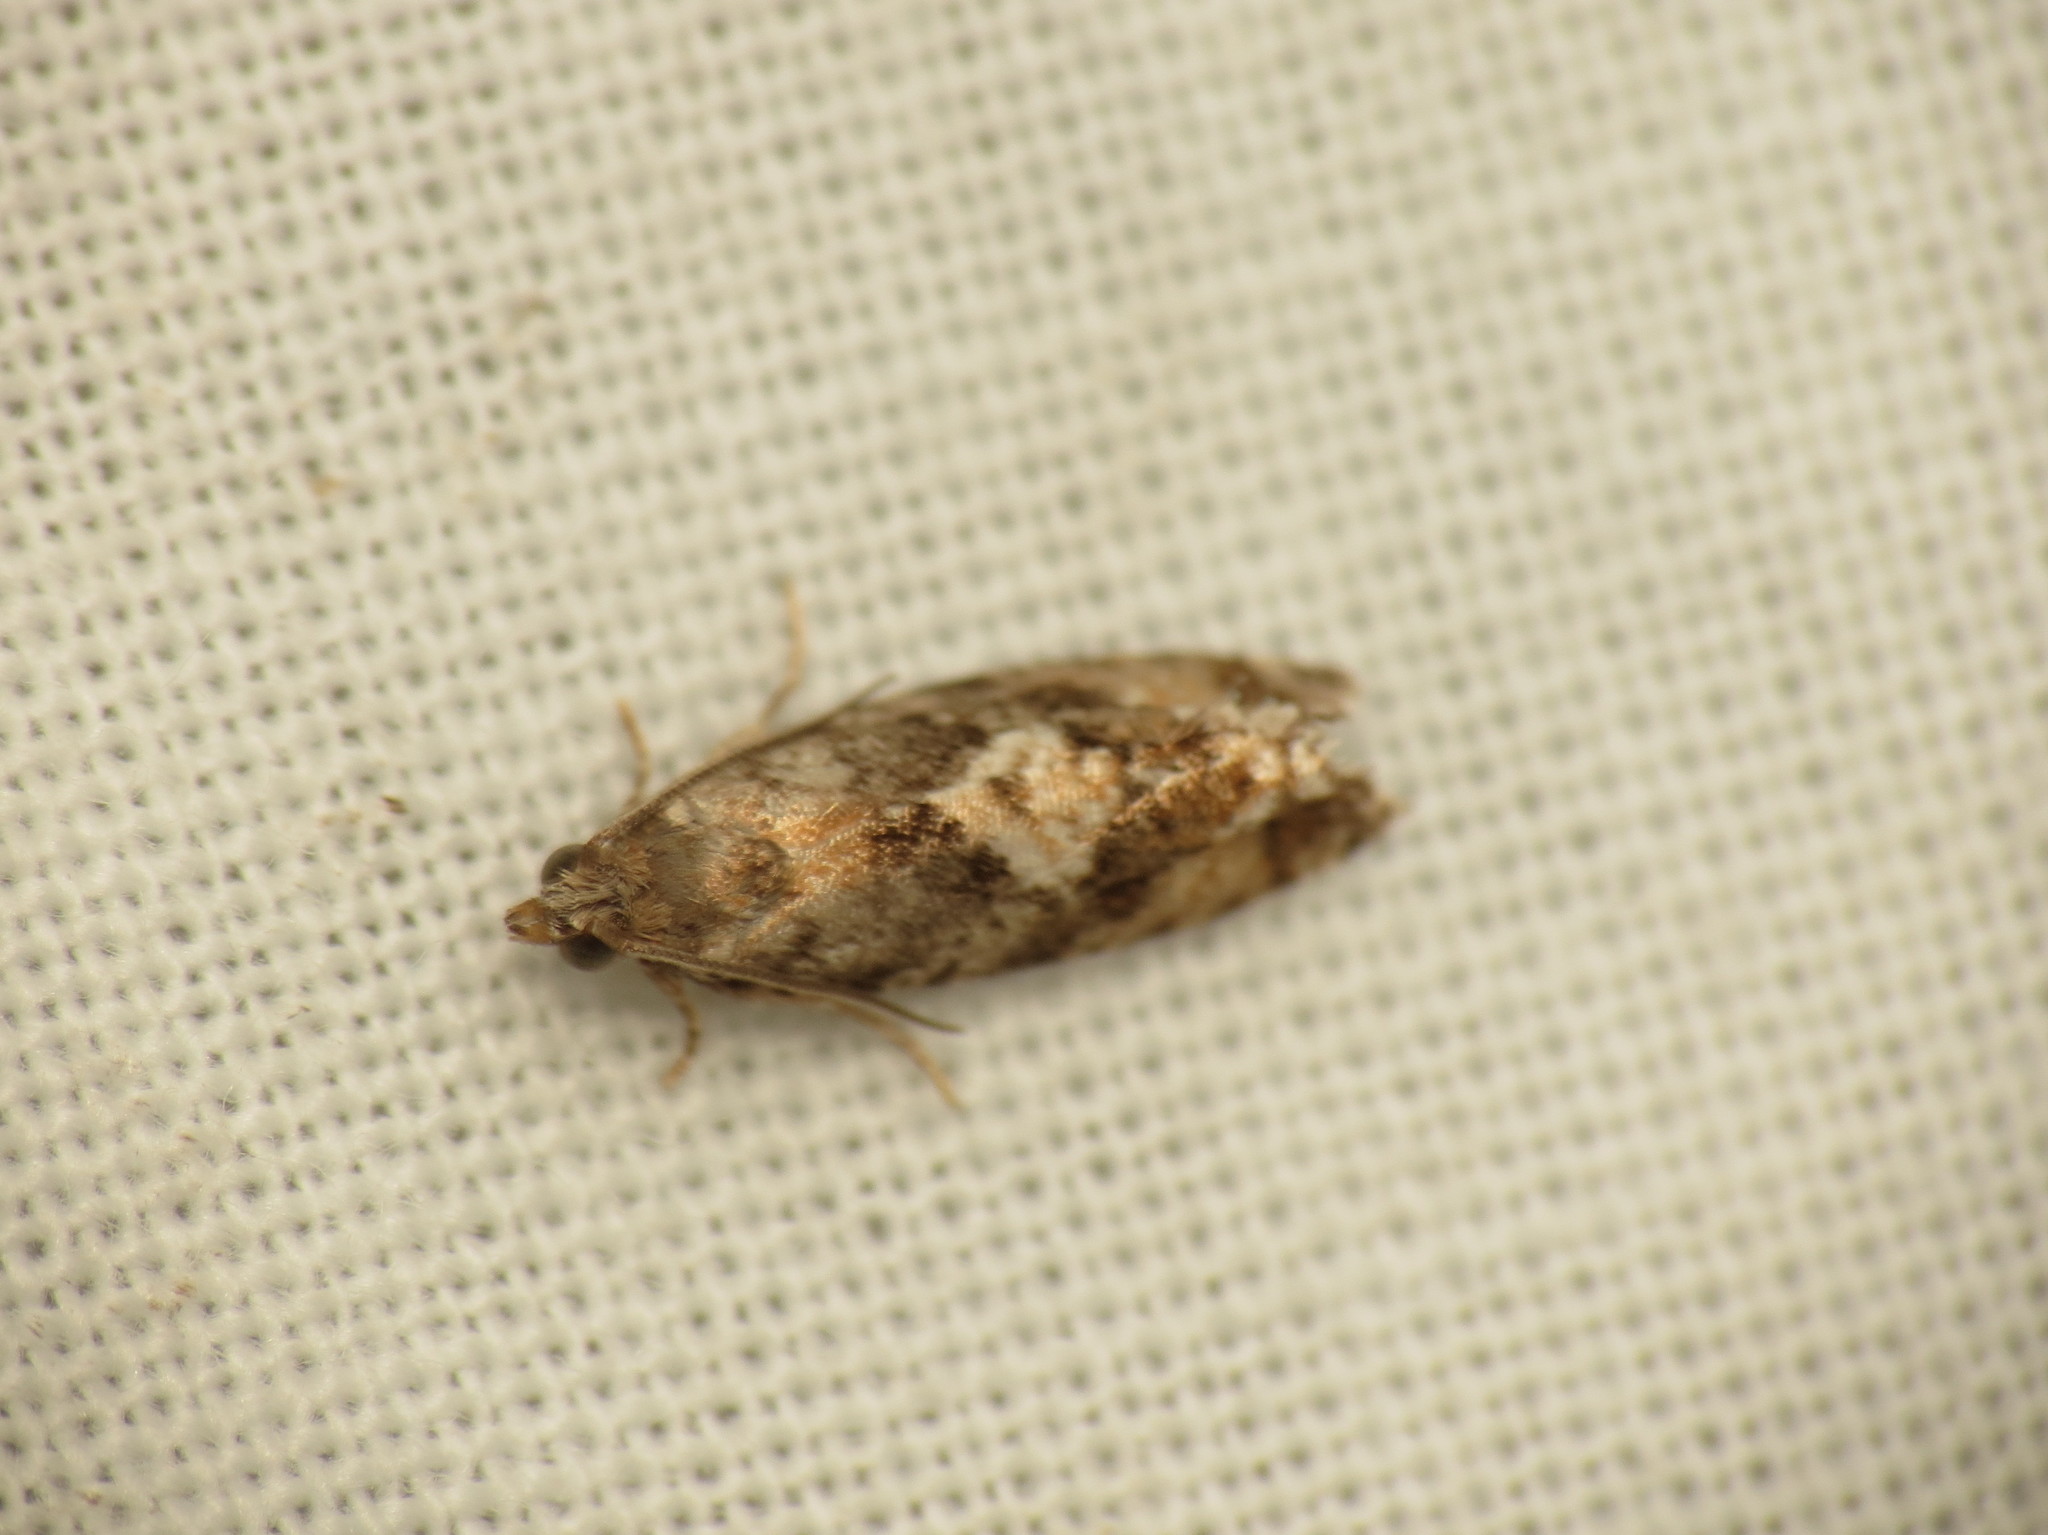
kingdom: Animalia
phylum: Arthropoda
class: Insecta
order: Lepidoptera
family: Tortricidae
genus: Zeiraphera
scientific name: Zeiraphera ratzeburgiana
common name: Spruce-bud moth
